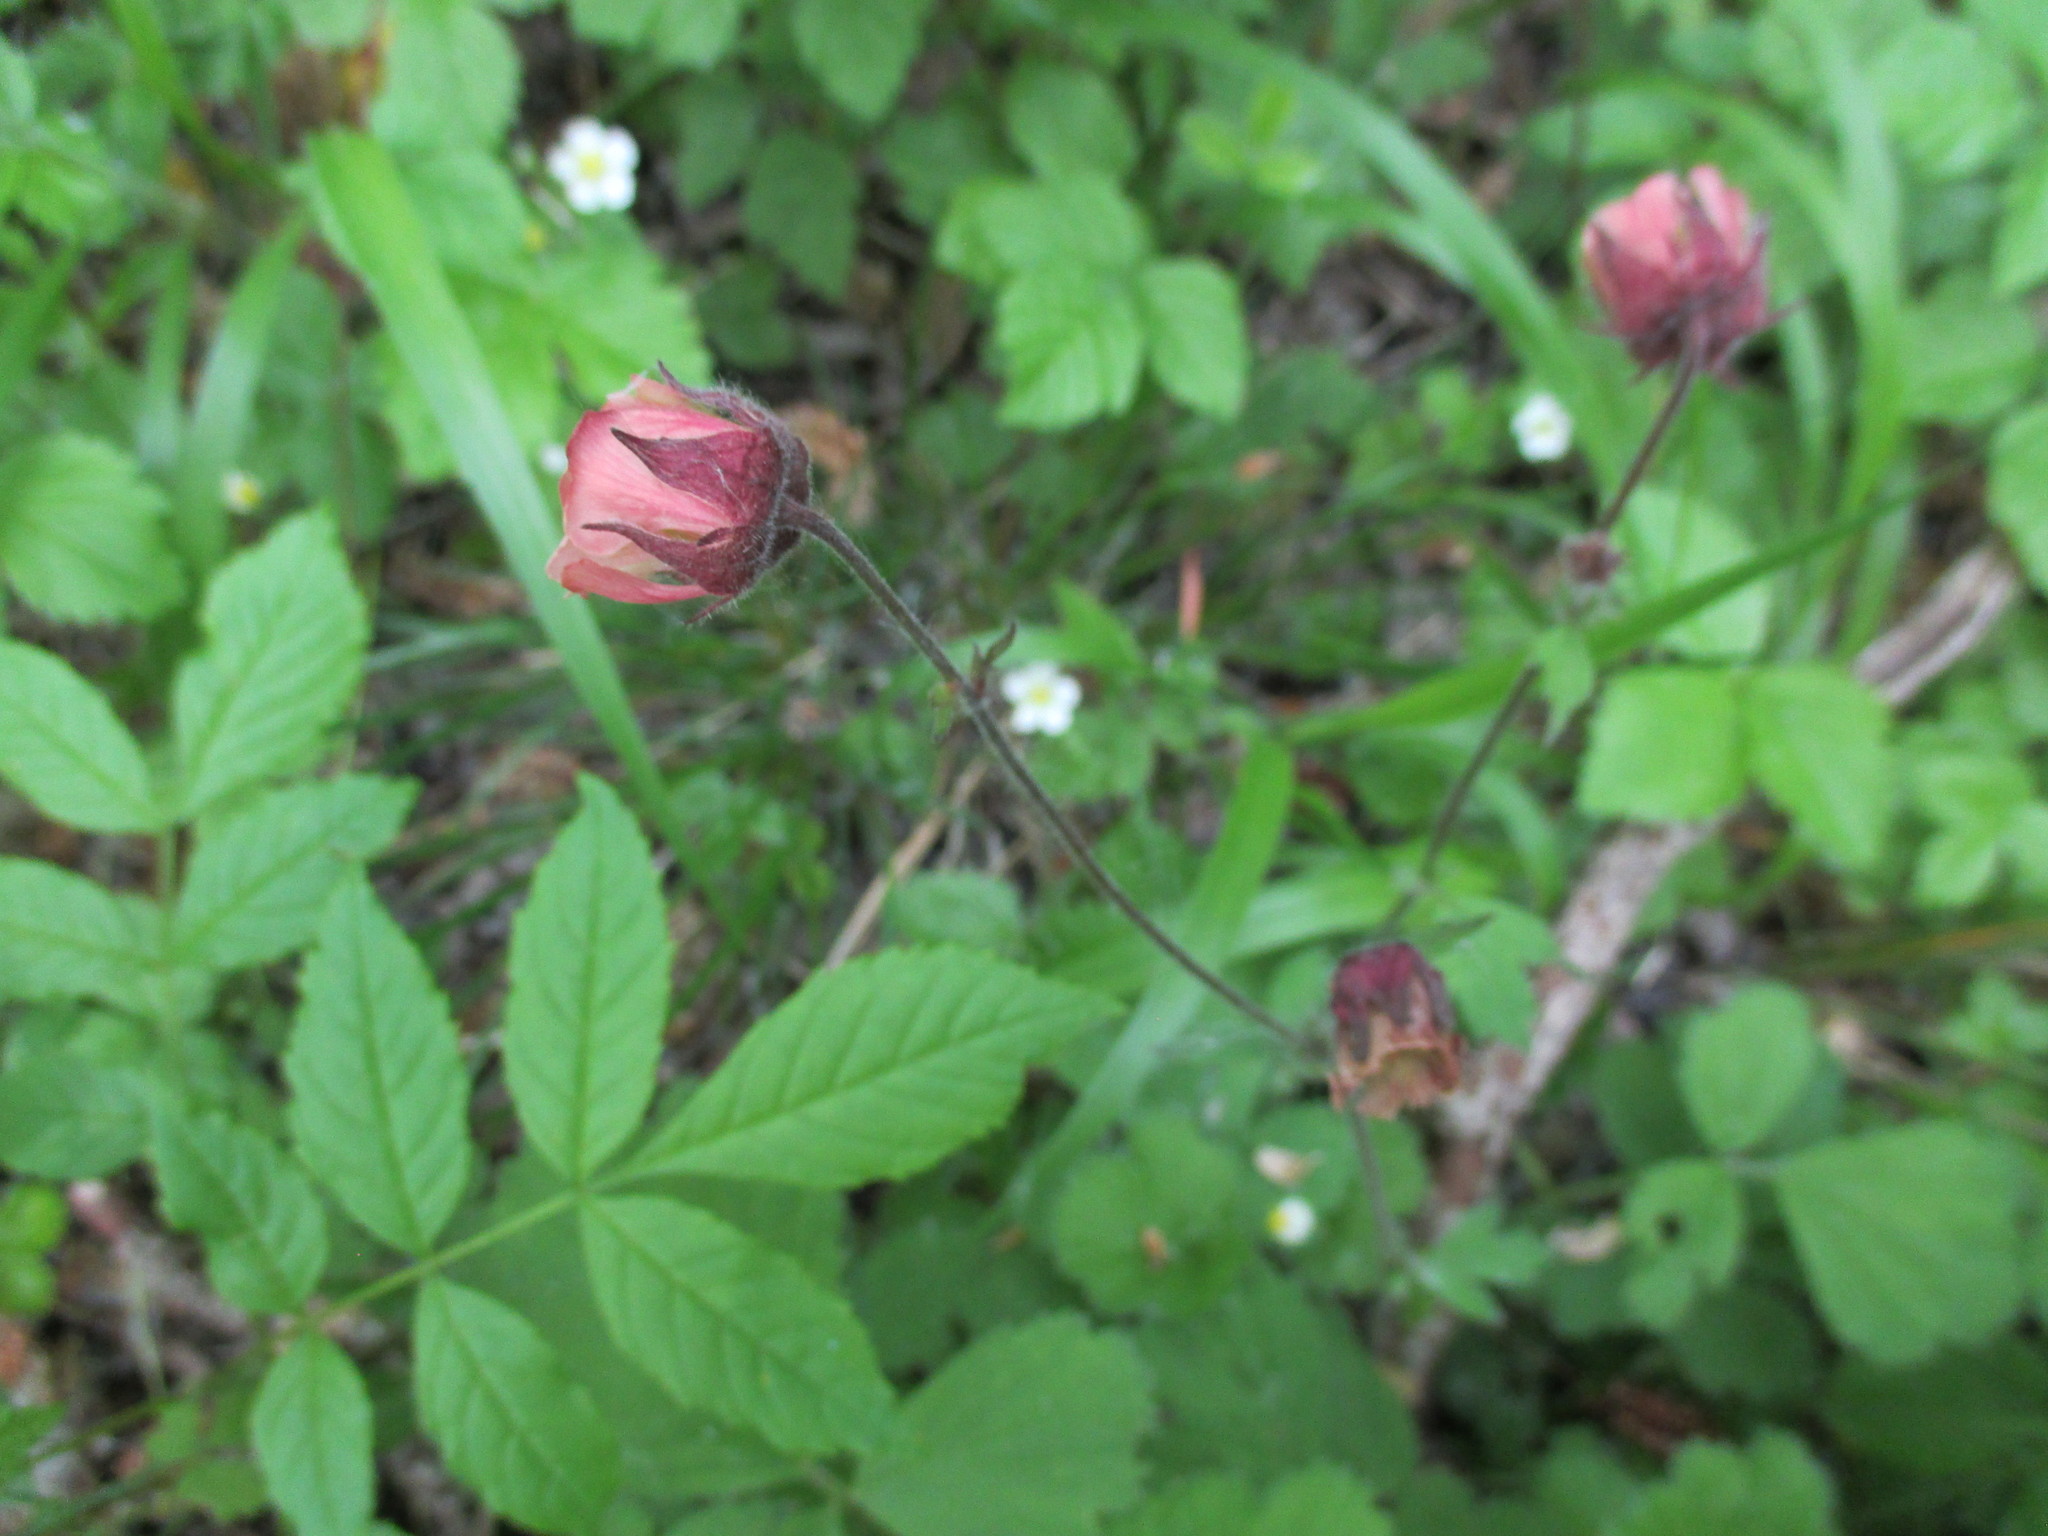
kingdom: Plantae
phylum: Tracheophyta
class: Magnoliopsida
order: Rosales
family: Rosaceae
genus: Geum
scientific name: Geum rivale
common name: Water avens
